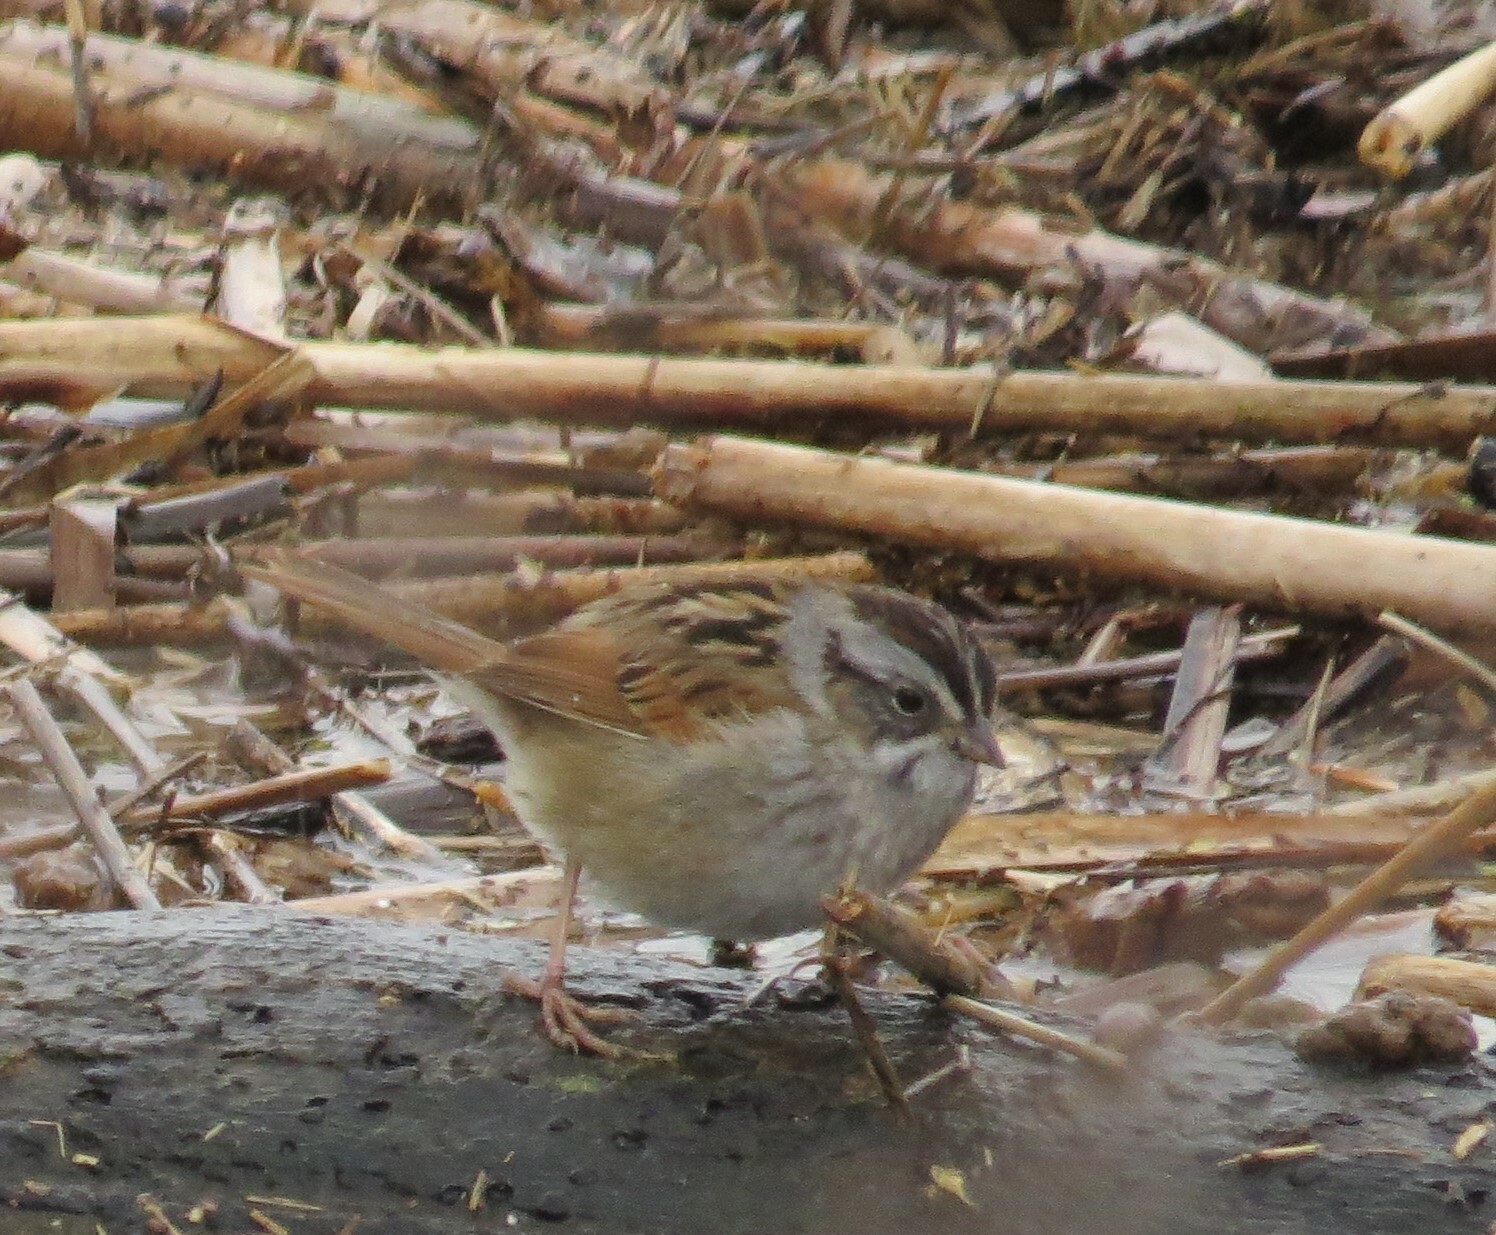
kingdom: Animalia
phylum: Chordata
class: Aves
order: Passeriformes
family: Passerellidae
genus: Melospiza
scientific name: Melospiza georgiana
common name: Swamp sparrow
